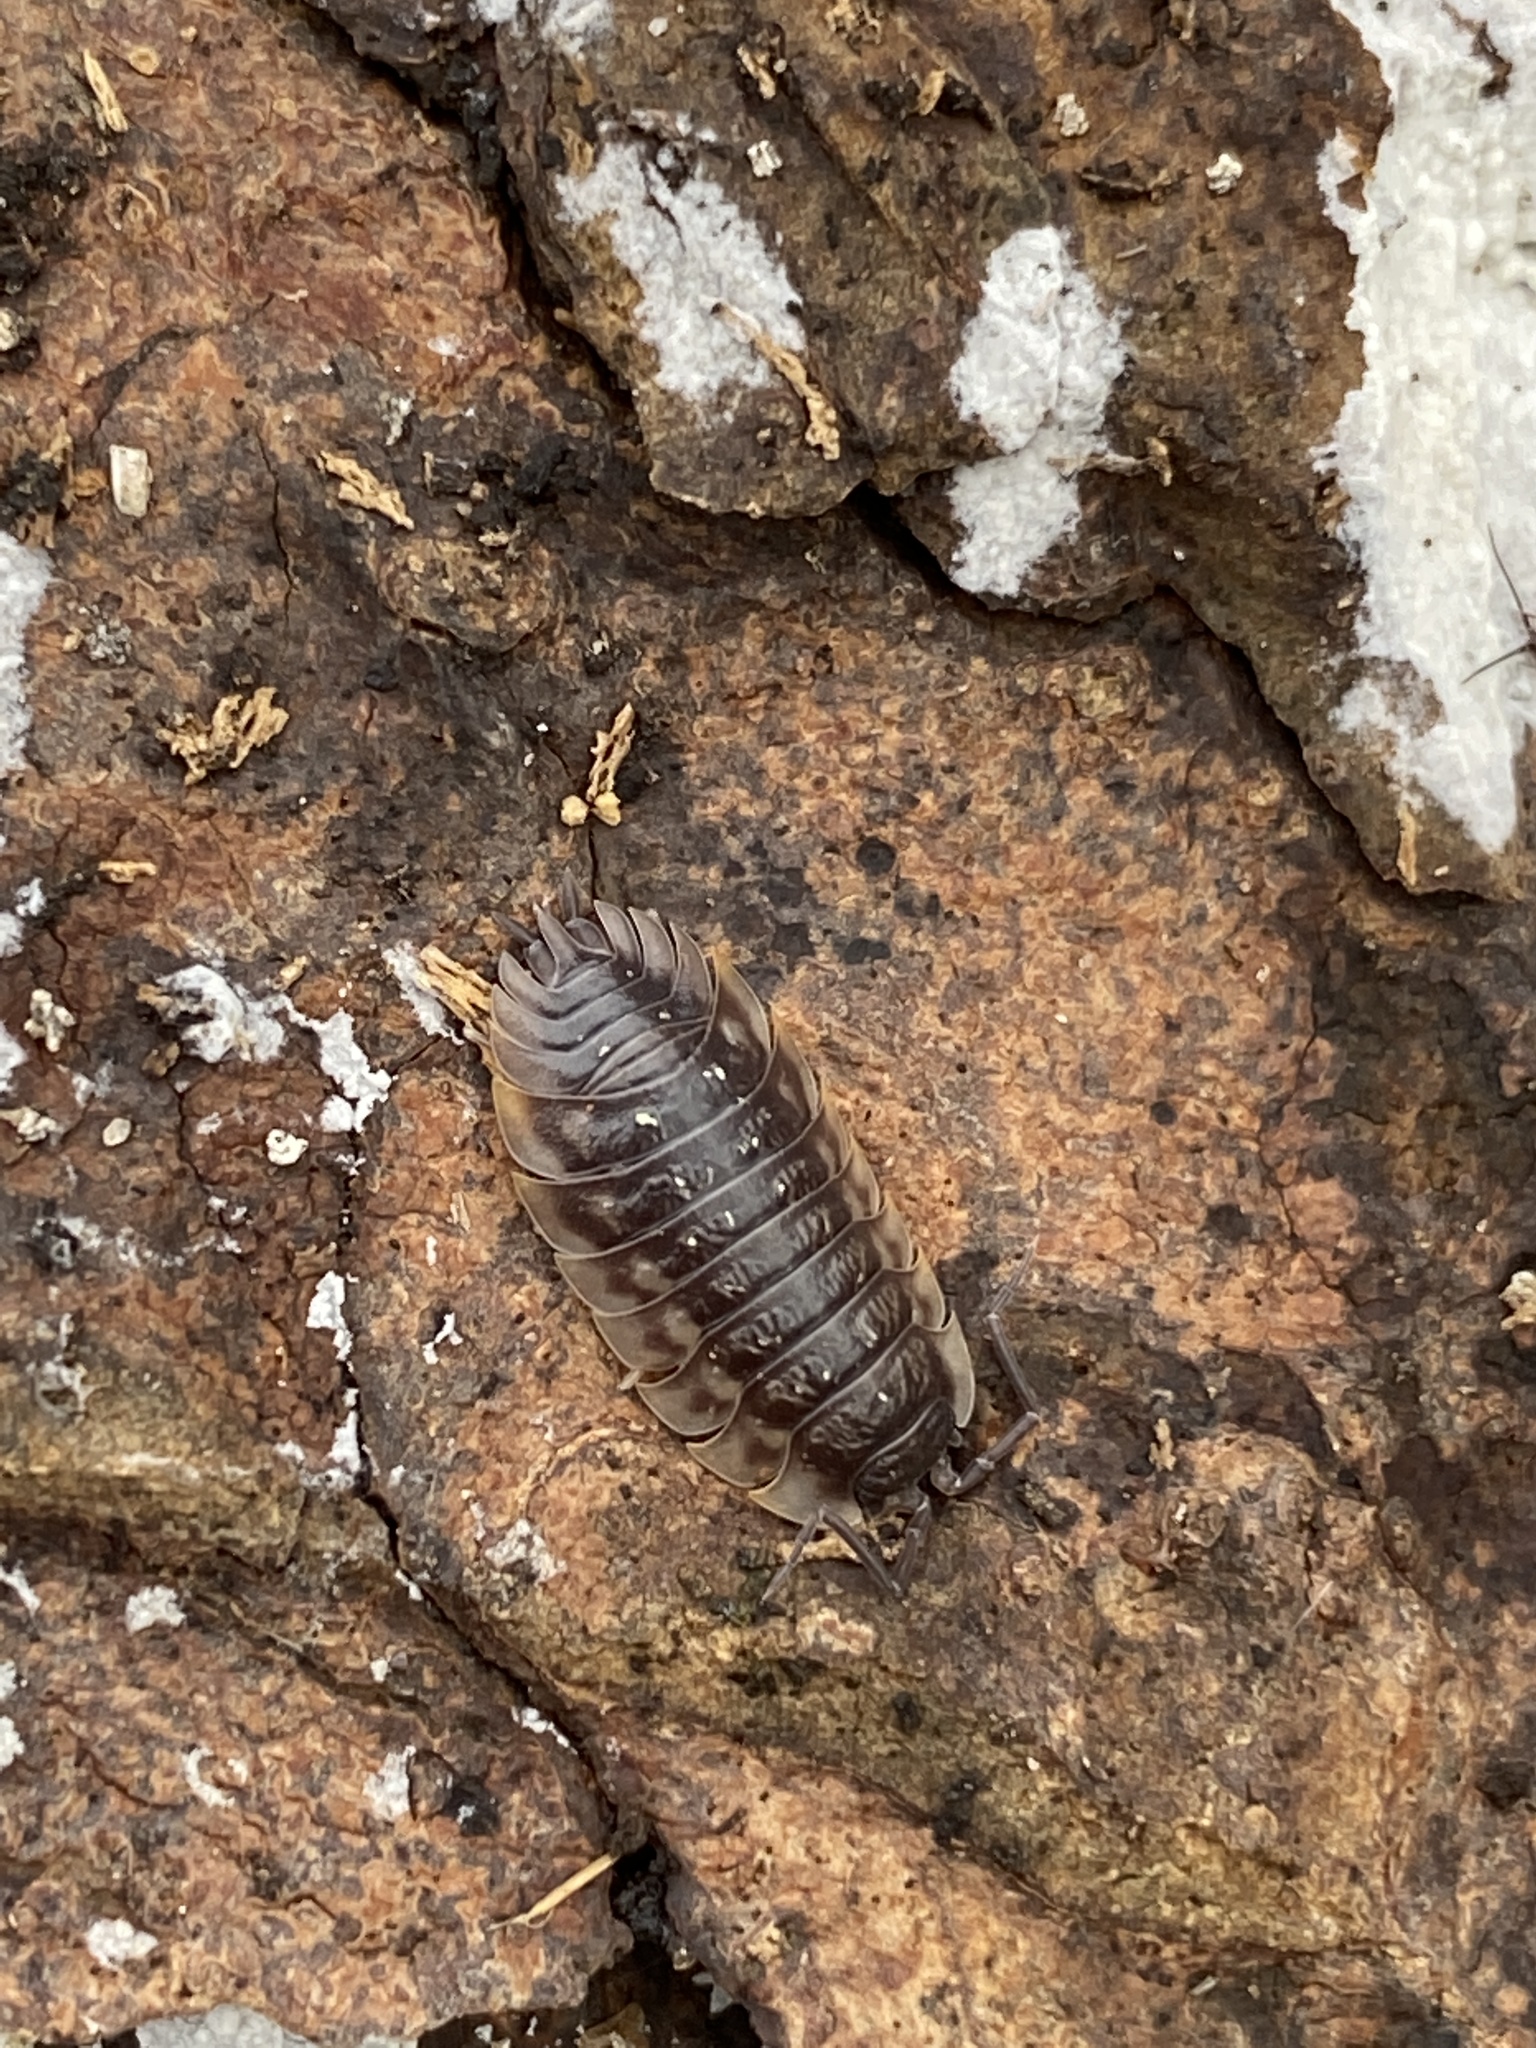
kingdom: Animalia
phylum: Arthropoda
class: Malacostraca
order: Isopoda
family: Oniscidae
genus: Oniscus
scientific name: Oniscus asellus
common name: Common shiny woodlouse
